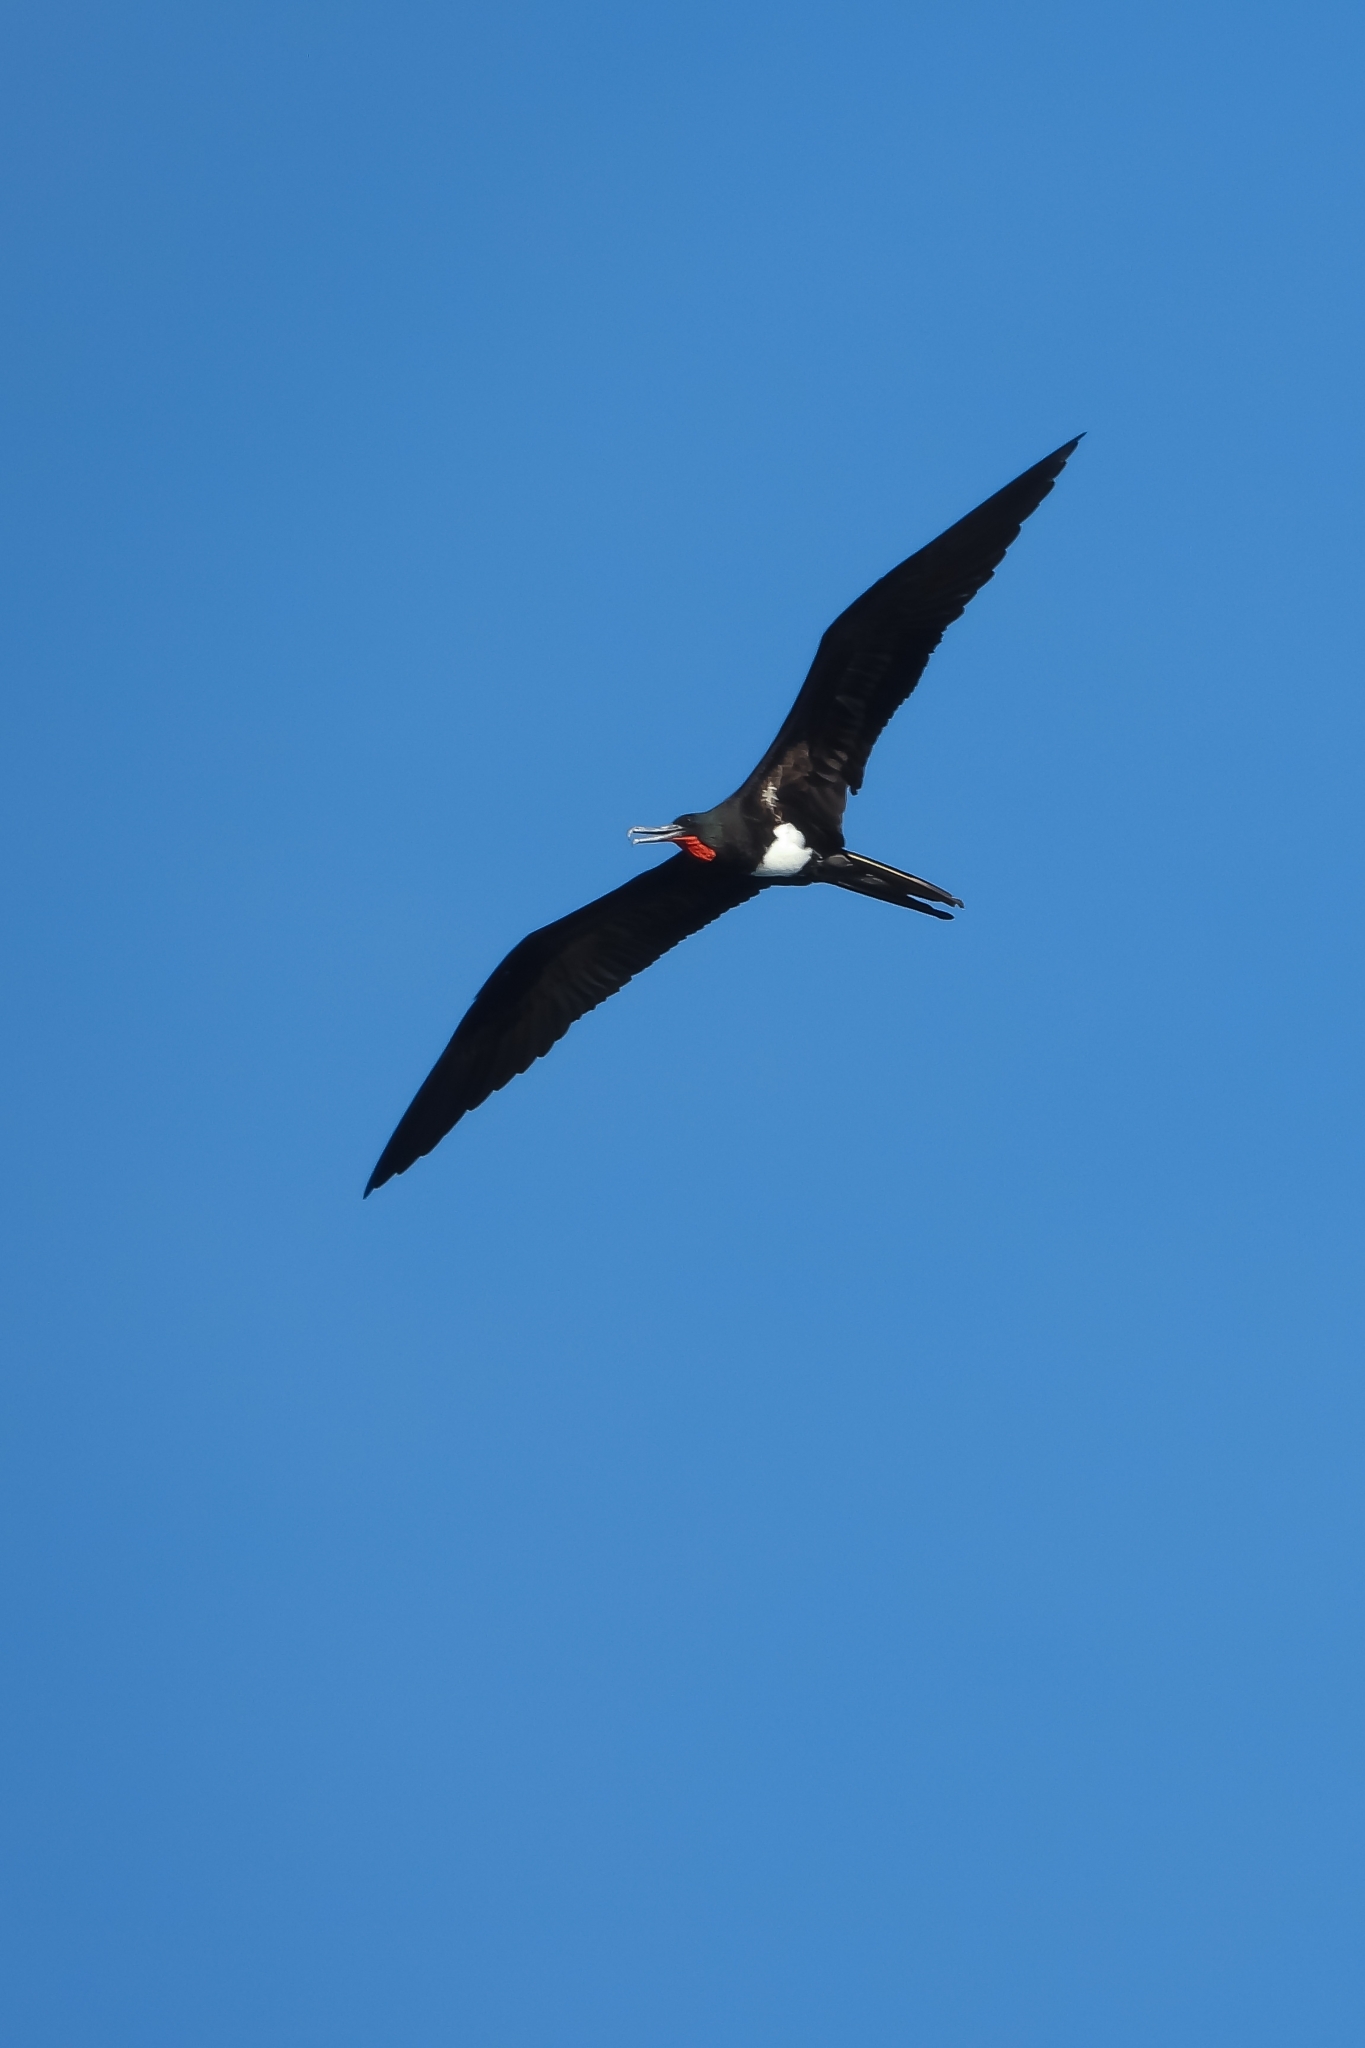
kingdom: Animalia
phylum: Chordata
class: Aves
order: Suliformes
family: Fregatidae
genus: Fregata
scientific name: Fregata andrewsi
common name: Christmas frigatebird
